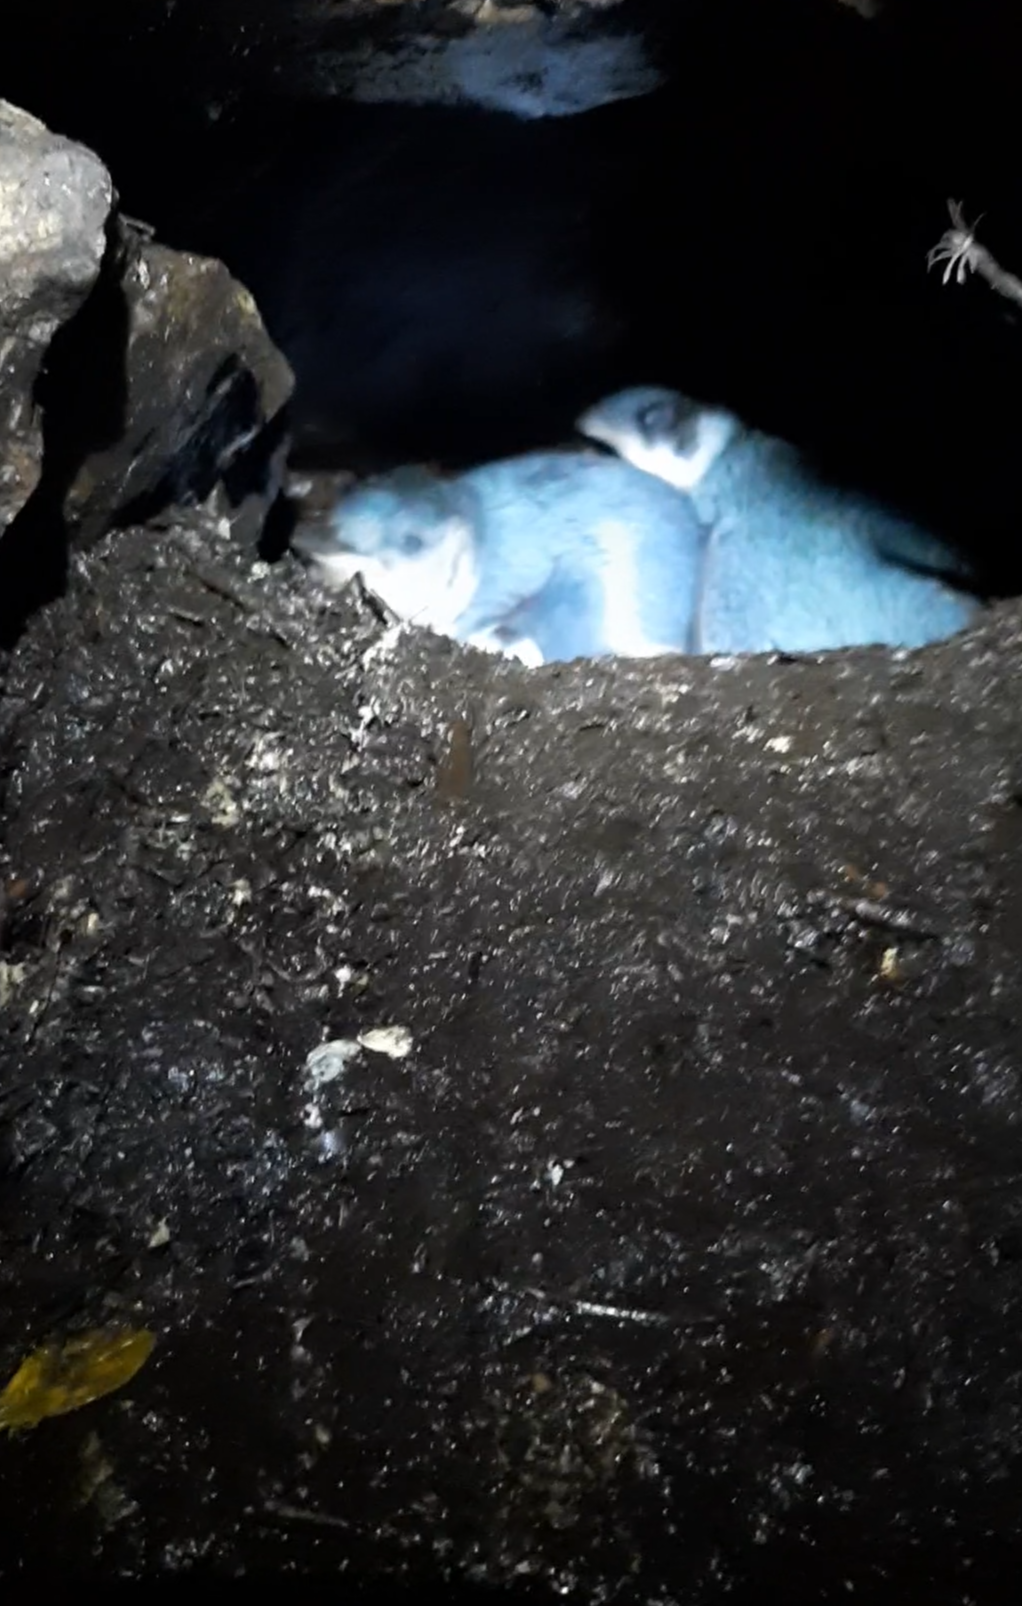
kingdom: Animalia
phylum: Chordata
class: Aves
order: Sphenisciformes
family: Spheniscidae
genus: Eudyptula
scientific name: Eudyptula minor
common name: Little penguin
